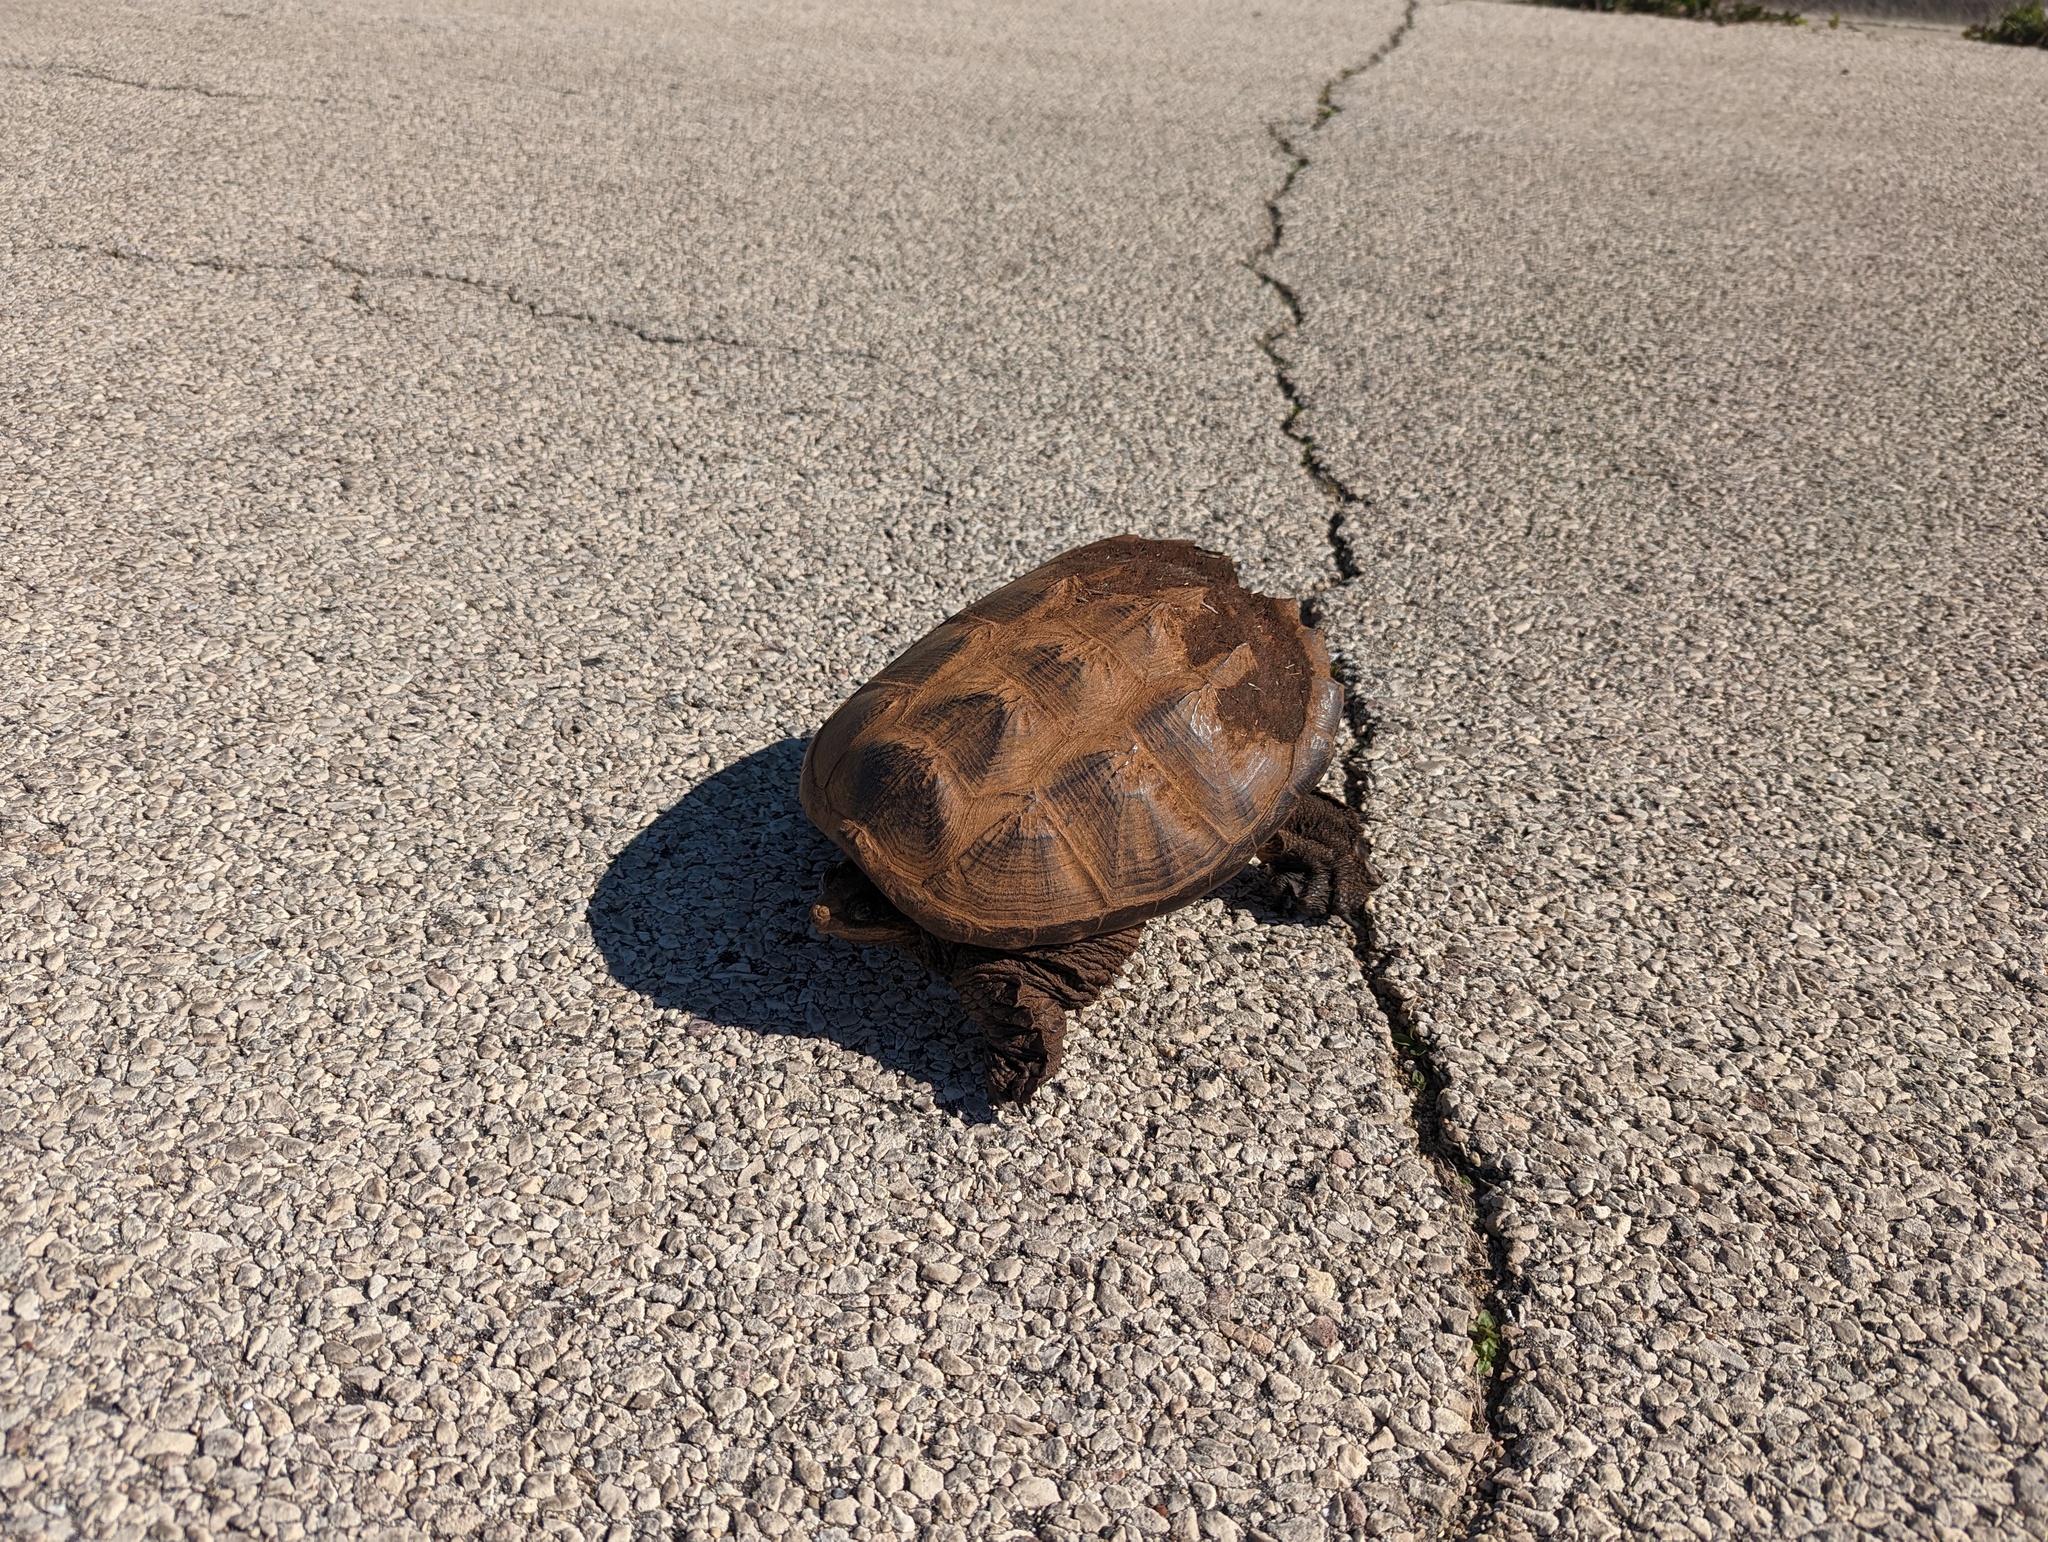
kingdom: Animalia
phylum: Chordata
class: Testudines
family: Chelydridae
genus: Chelydra
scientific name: Chelydra serpentina
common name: Common snapping turtle
